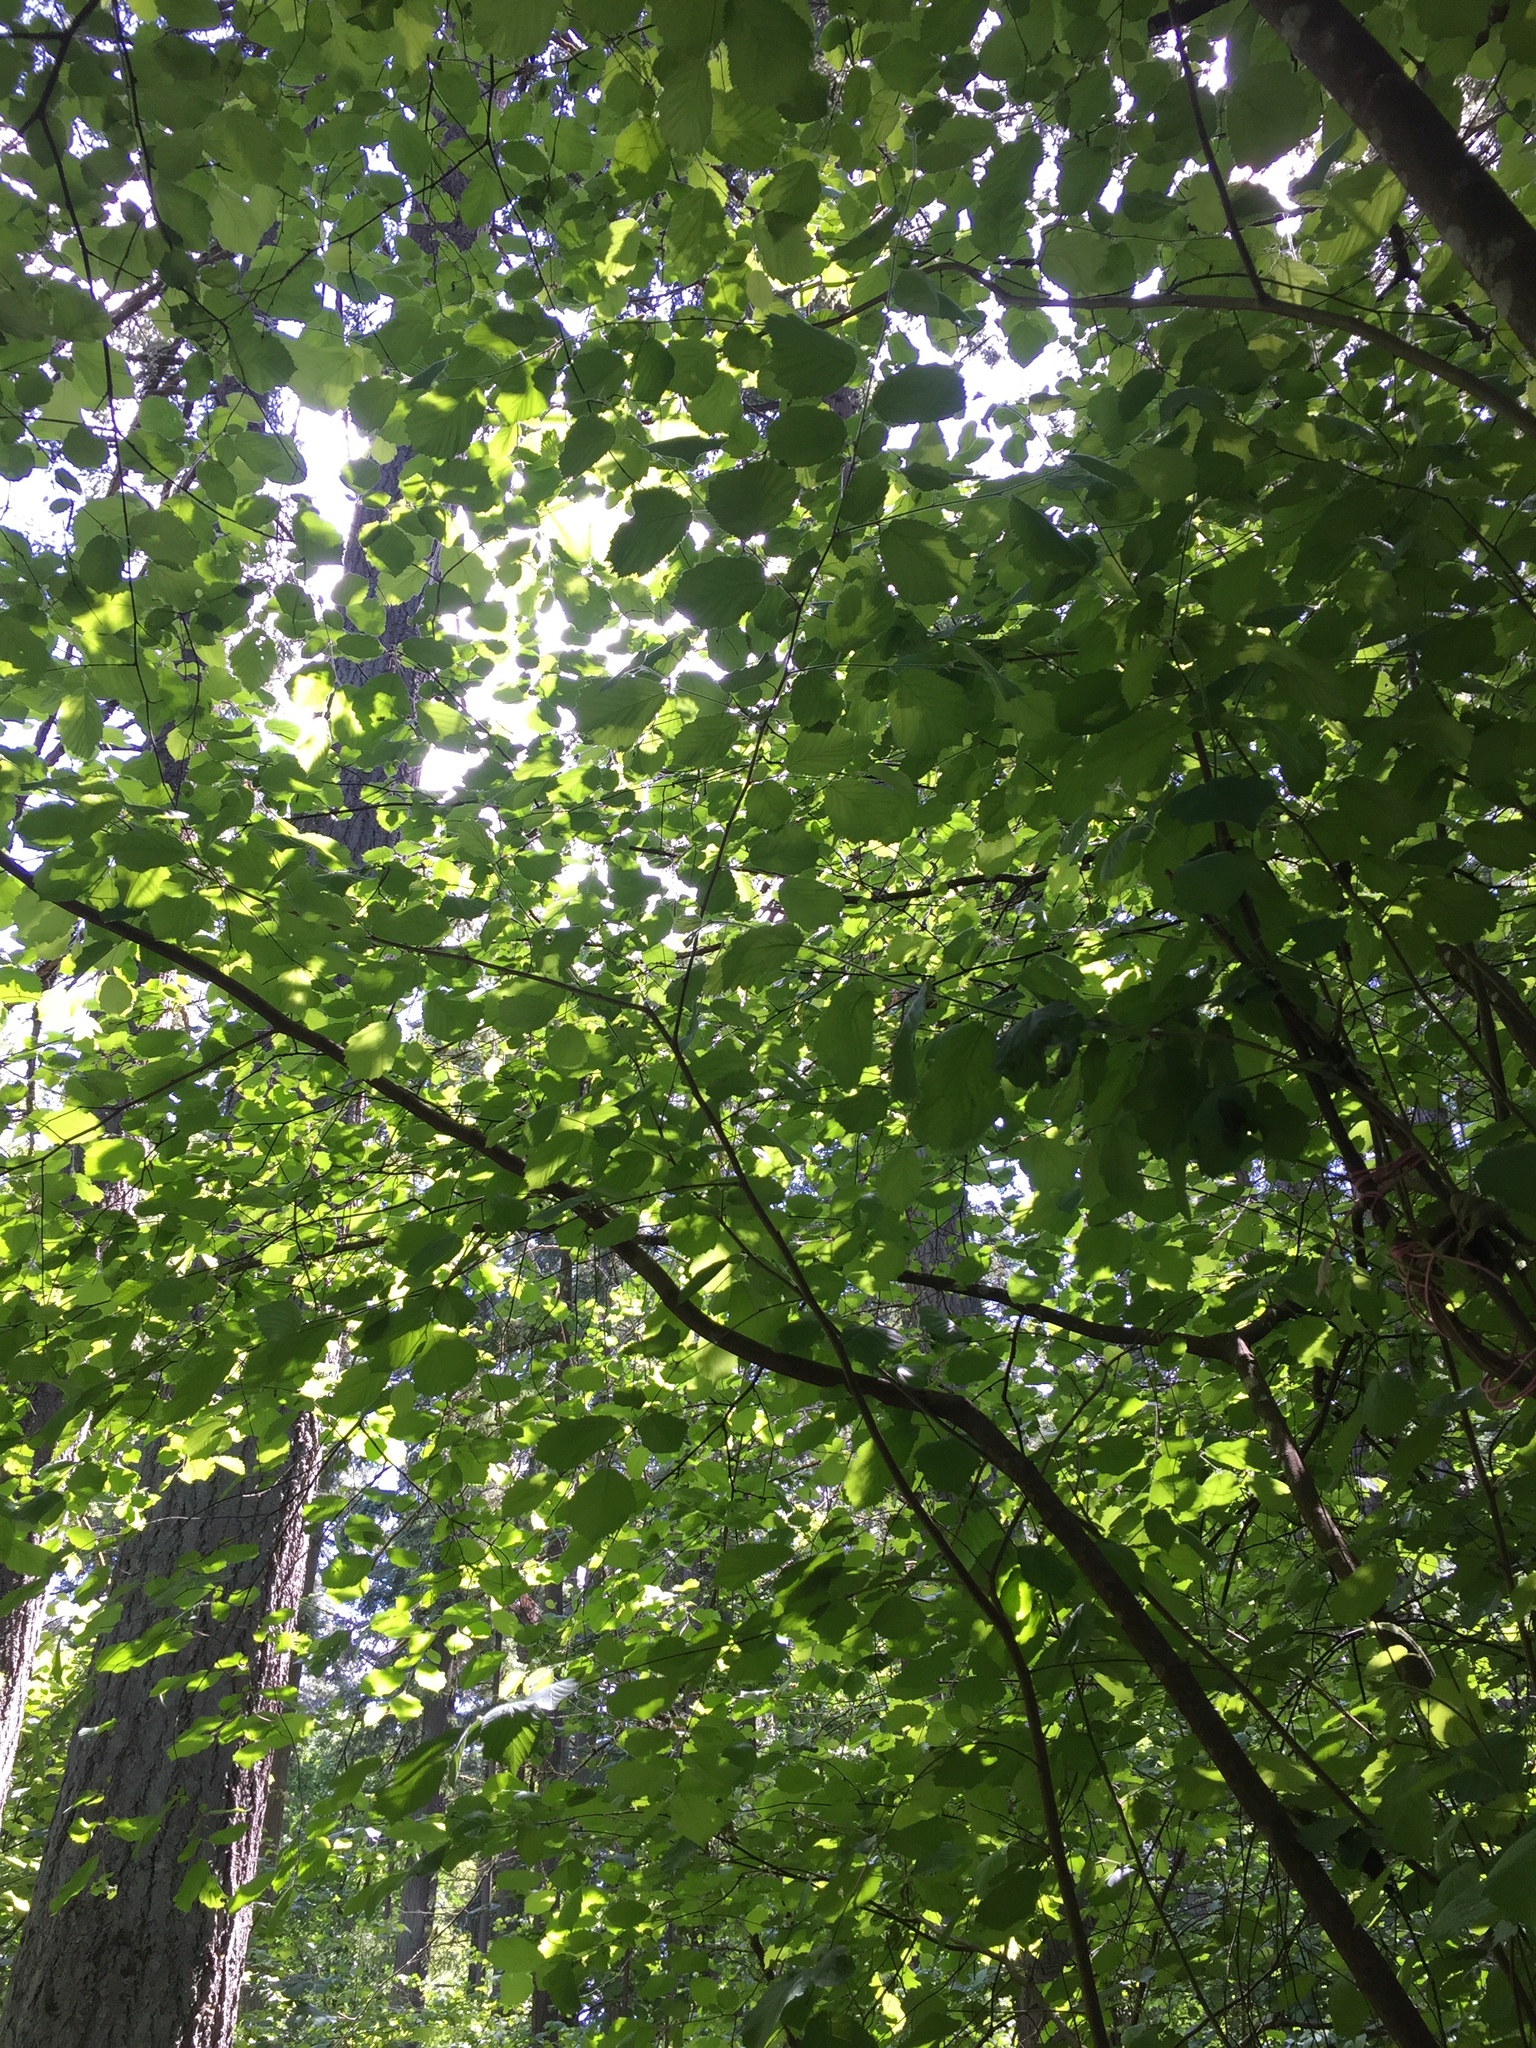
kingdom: Plantae
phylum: Tracheophyta
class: Magnoliopsida
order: Fagales
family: Betulaceae
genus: Alnus
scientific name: Alnus rubra
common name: Red alder
